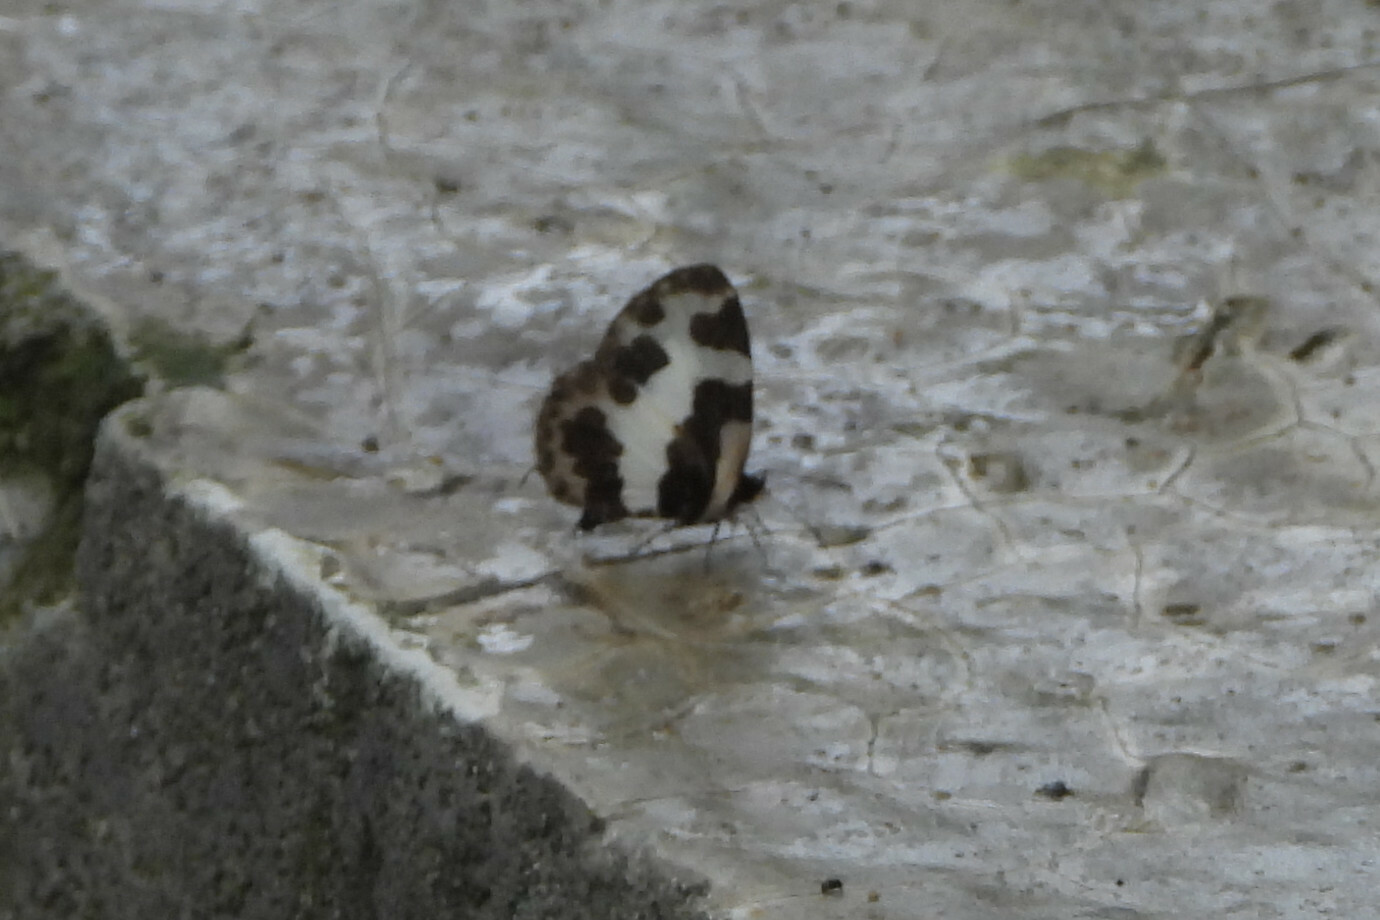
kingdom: Animalia
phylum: Arthropoda
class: Insecta
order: Lepidoptera
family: Lycaenidae
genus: Caleta
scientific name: Caleta elna
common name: Elbowed pierrot
